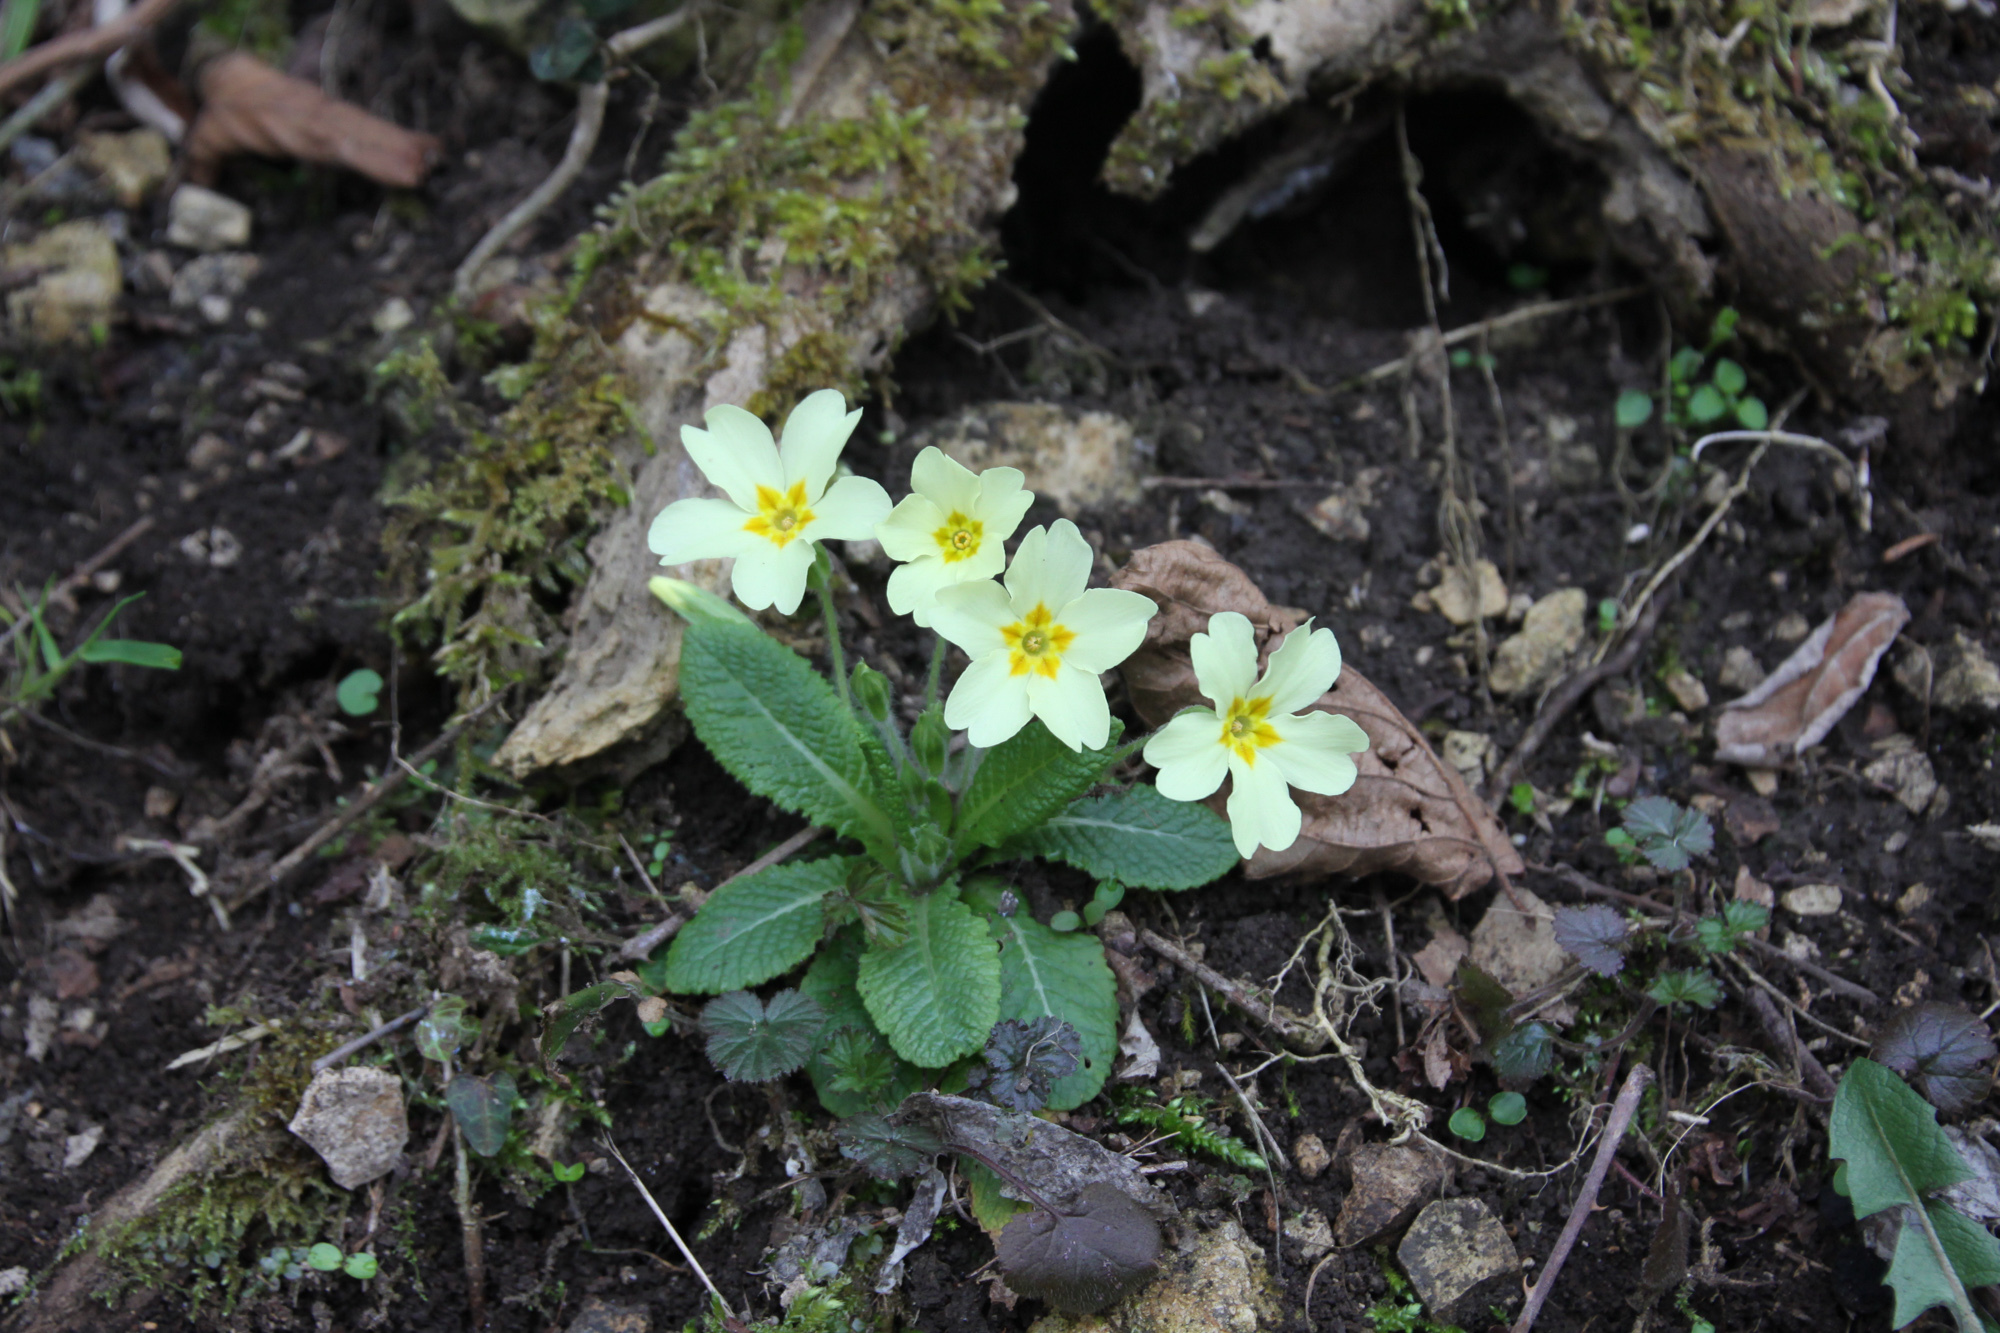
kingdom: Plantae
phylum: Tracheophyta
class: Magnoliopsida
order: Ericales
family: Primulaceae
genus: Primula
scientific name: Primula vulgaris
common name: Primrose
